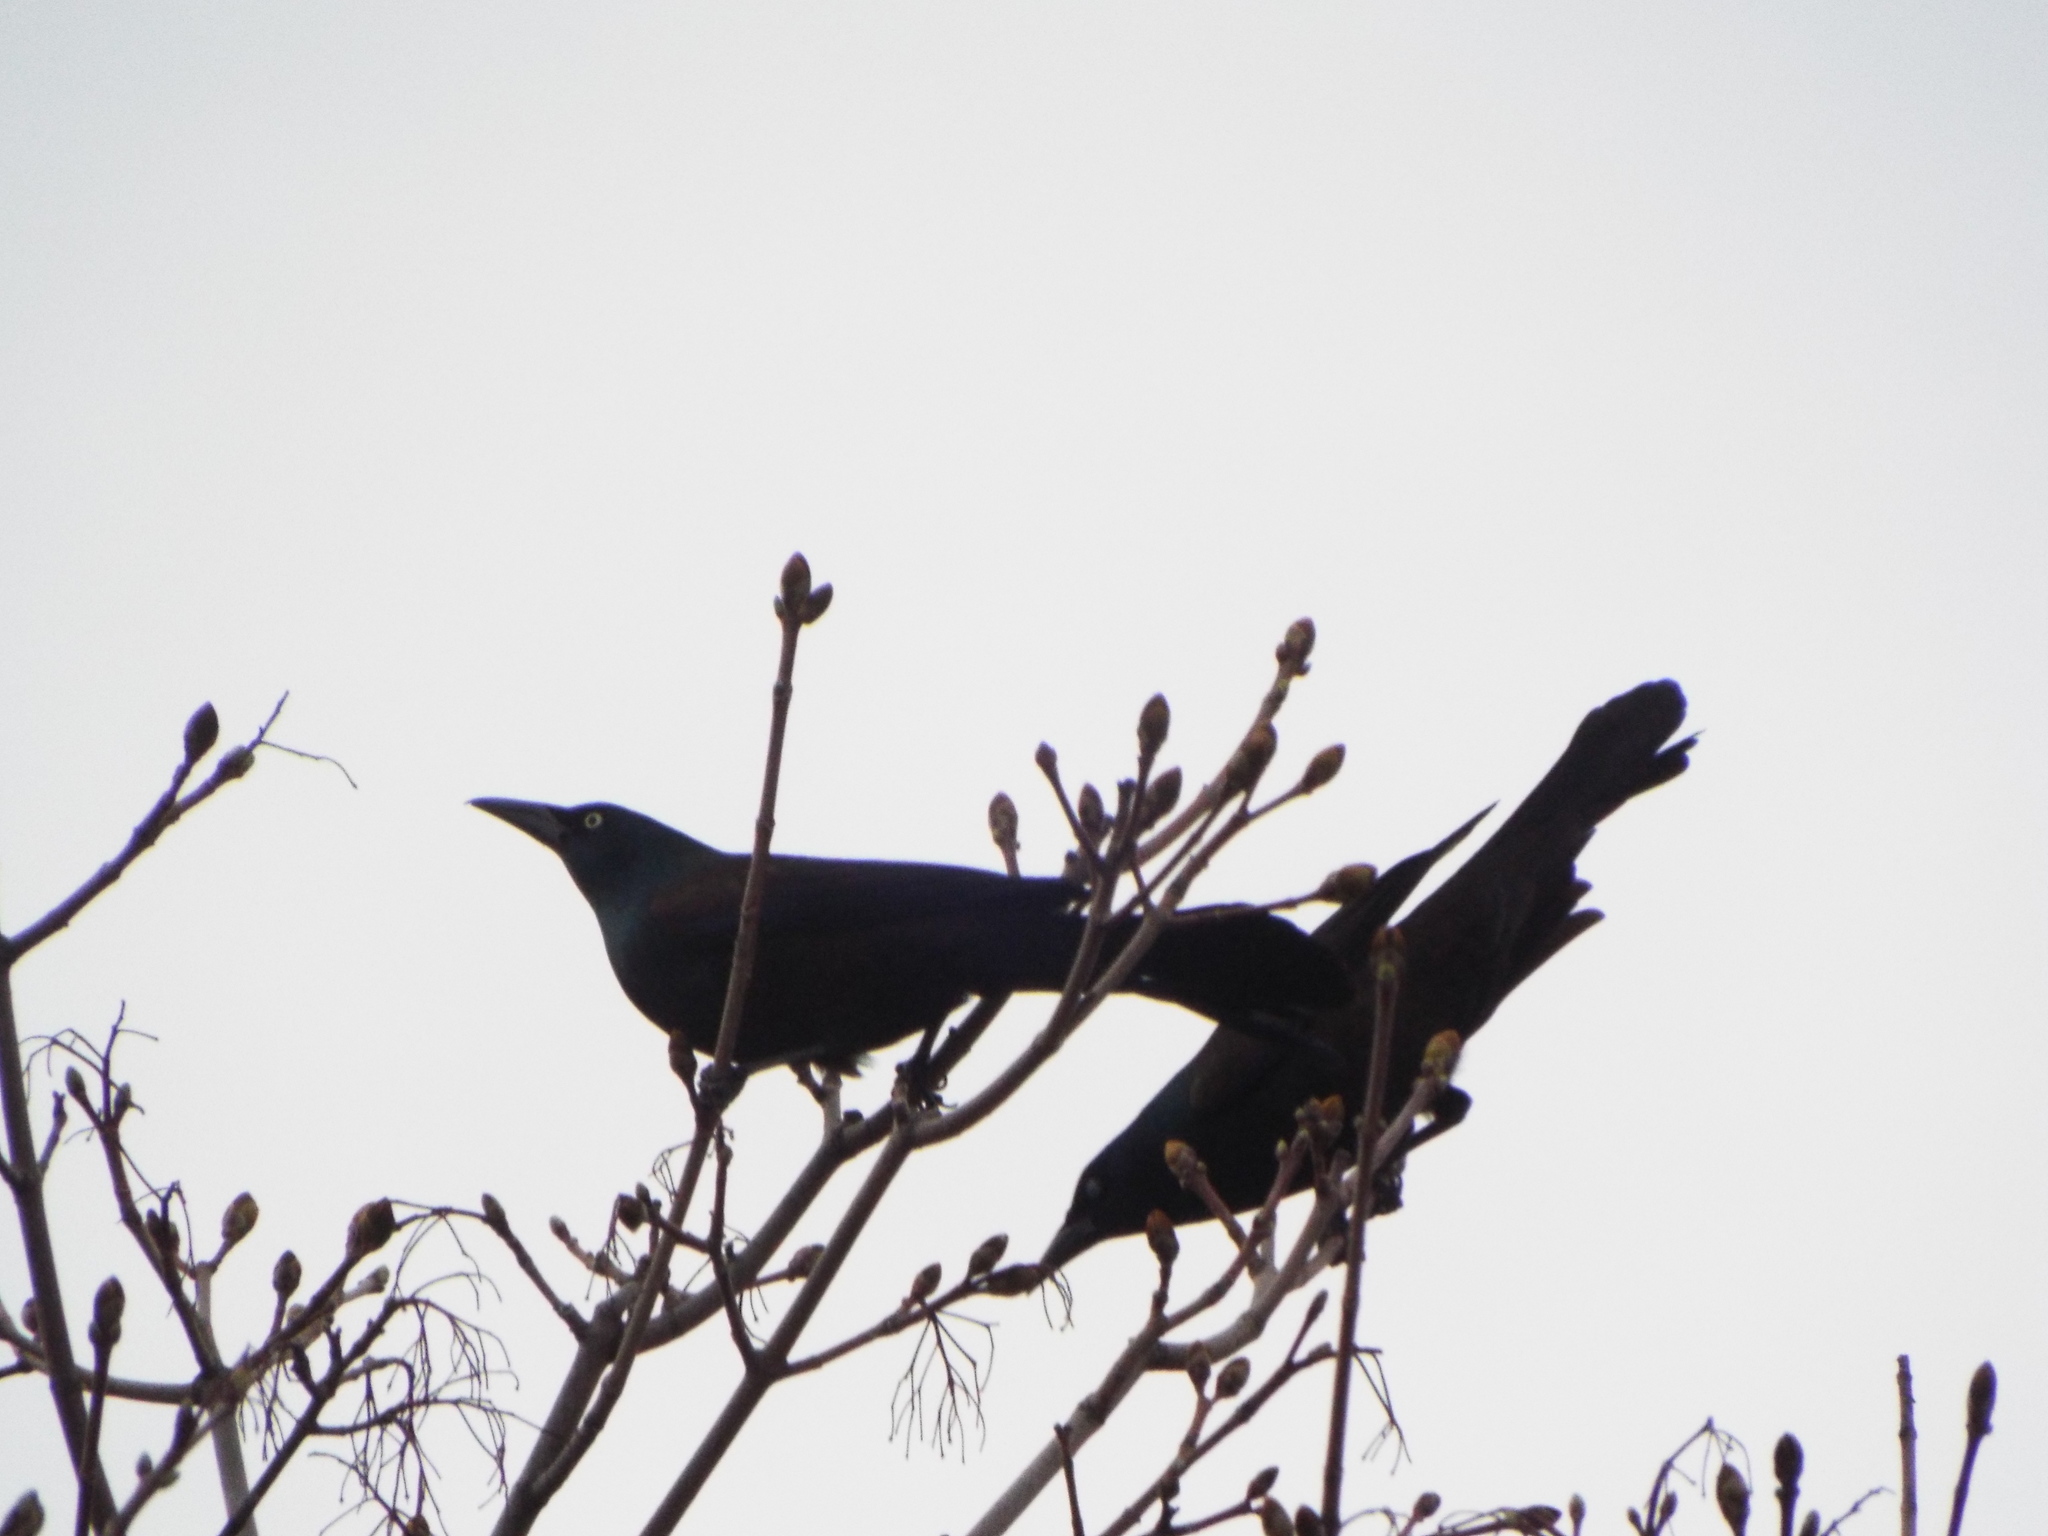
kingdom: Animalia
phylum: Chordata
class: Aves
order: Passeriformes
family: Icteridae
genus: Quiscalus
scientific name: Quiscalus quiscula
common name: Common grackle
